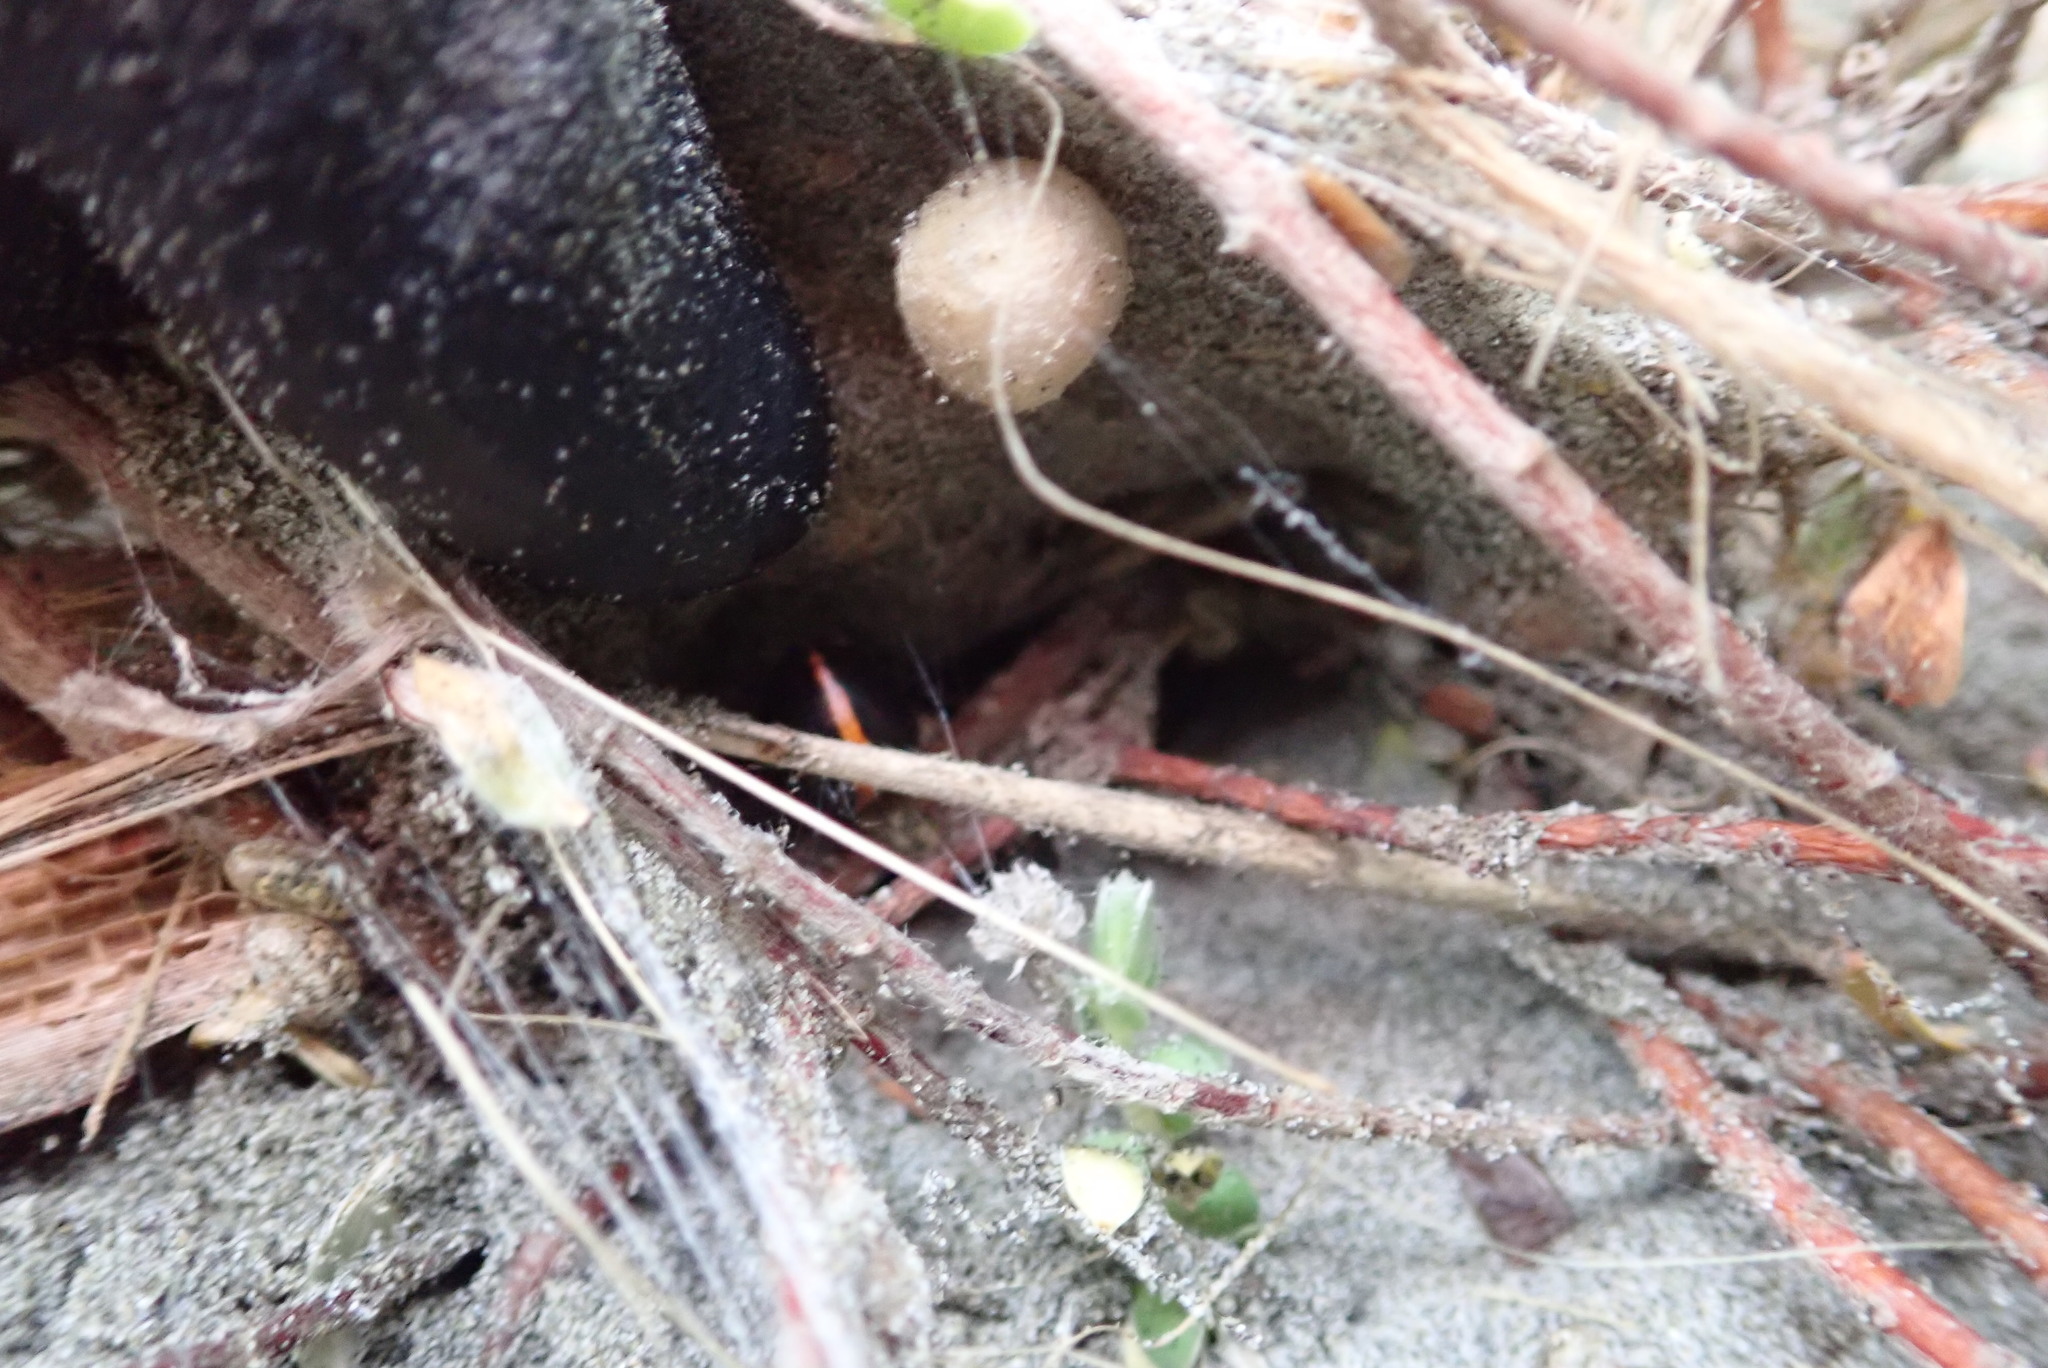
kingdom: Animalia
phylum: Arthropoda
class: Arachnida
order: Araneae
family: Theridiidae
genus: Latrodectus
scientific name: Latrodectus katipo
